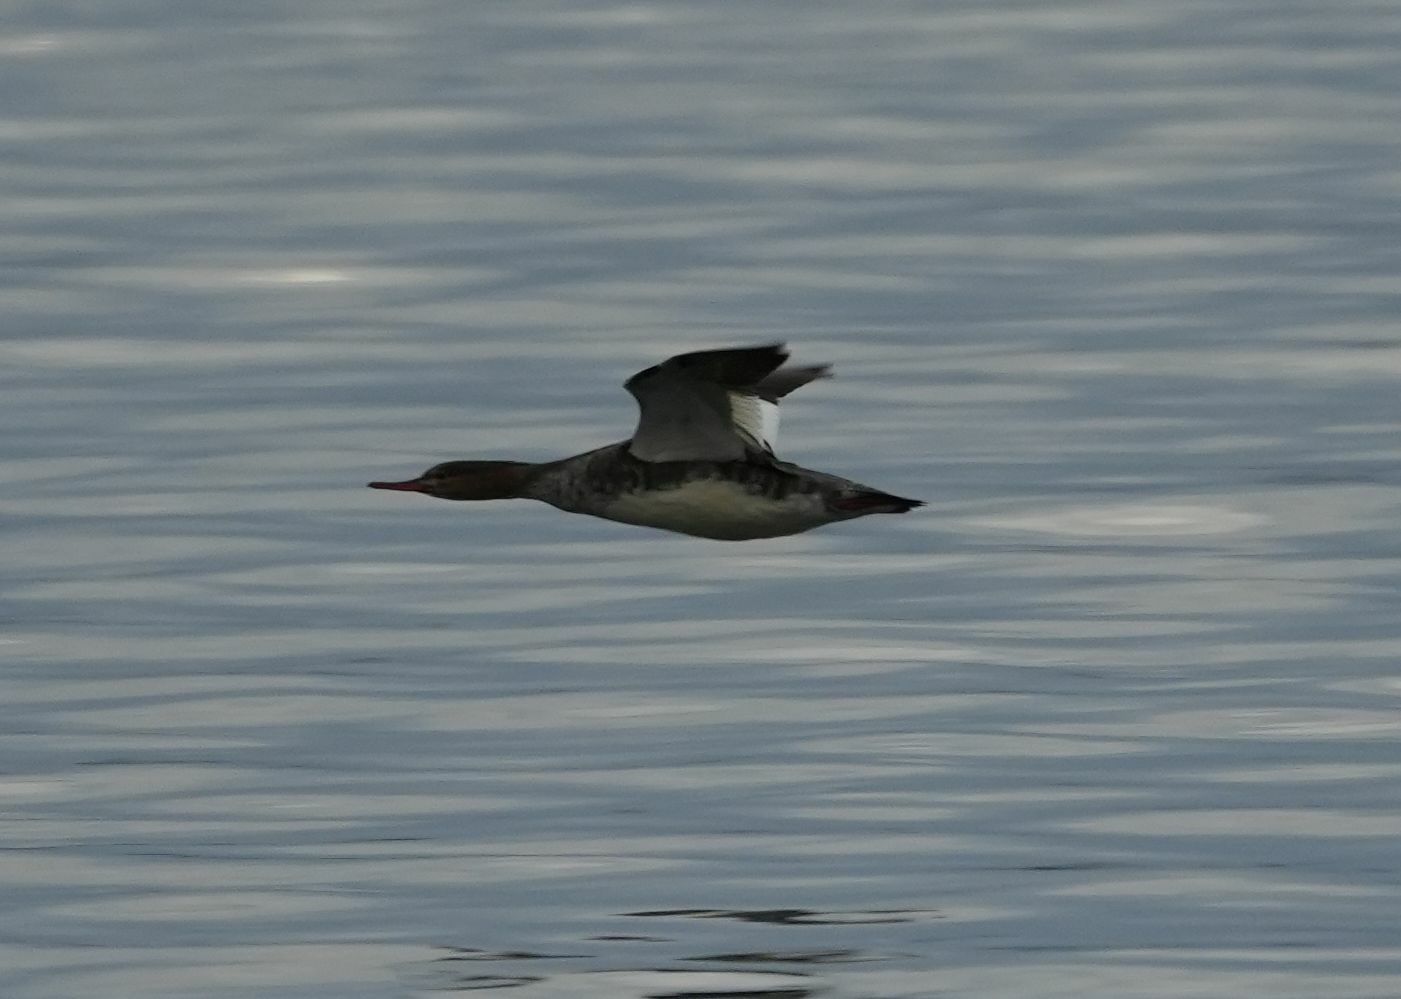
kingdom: Animalia
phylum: Chordata
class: Aves
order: Anseriformes
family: Anatidae
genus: Mergus
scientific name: Mergus serrator
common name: Red-breasted merganser
